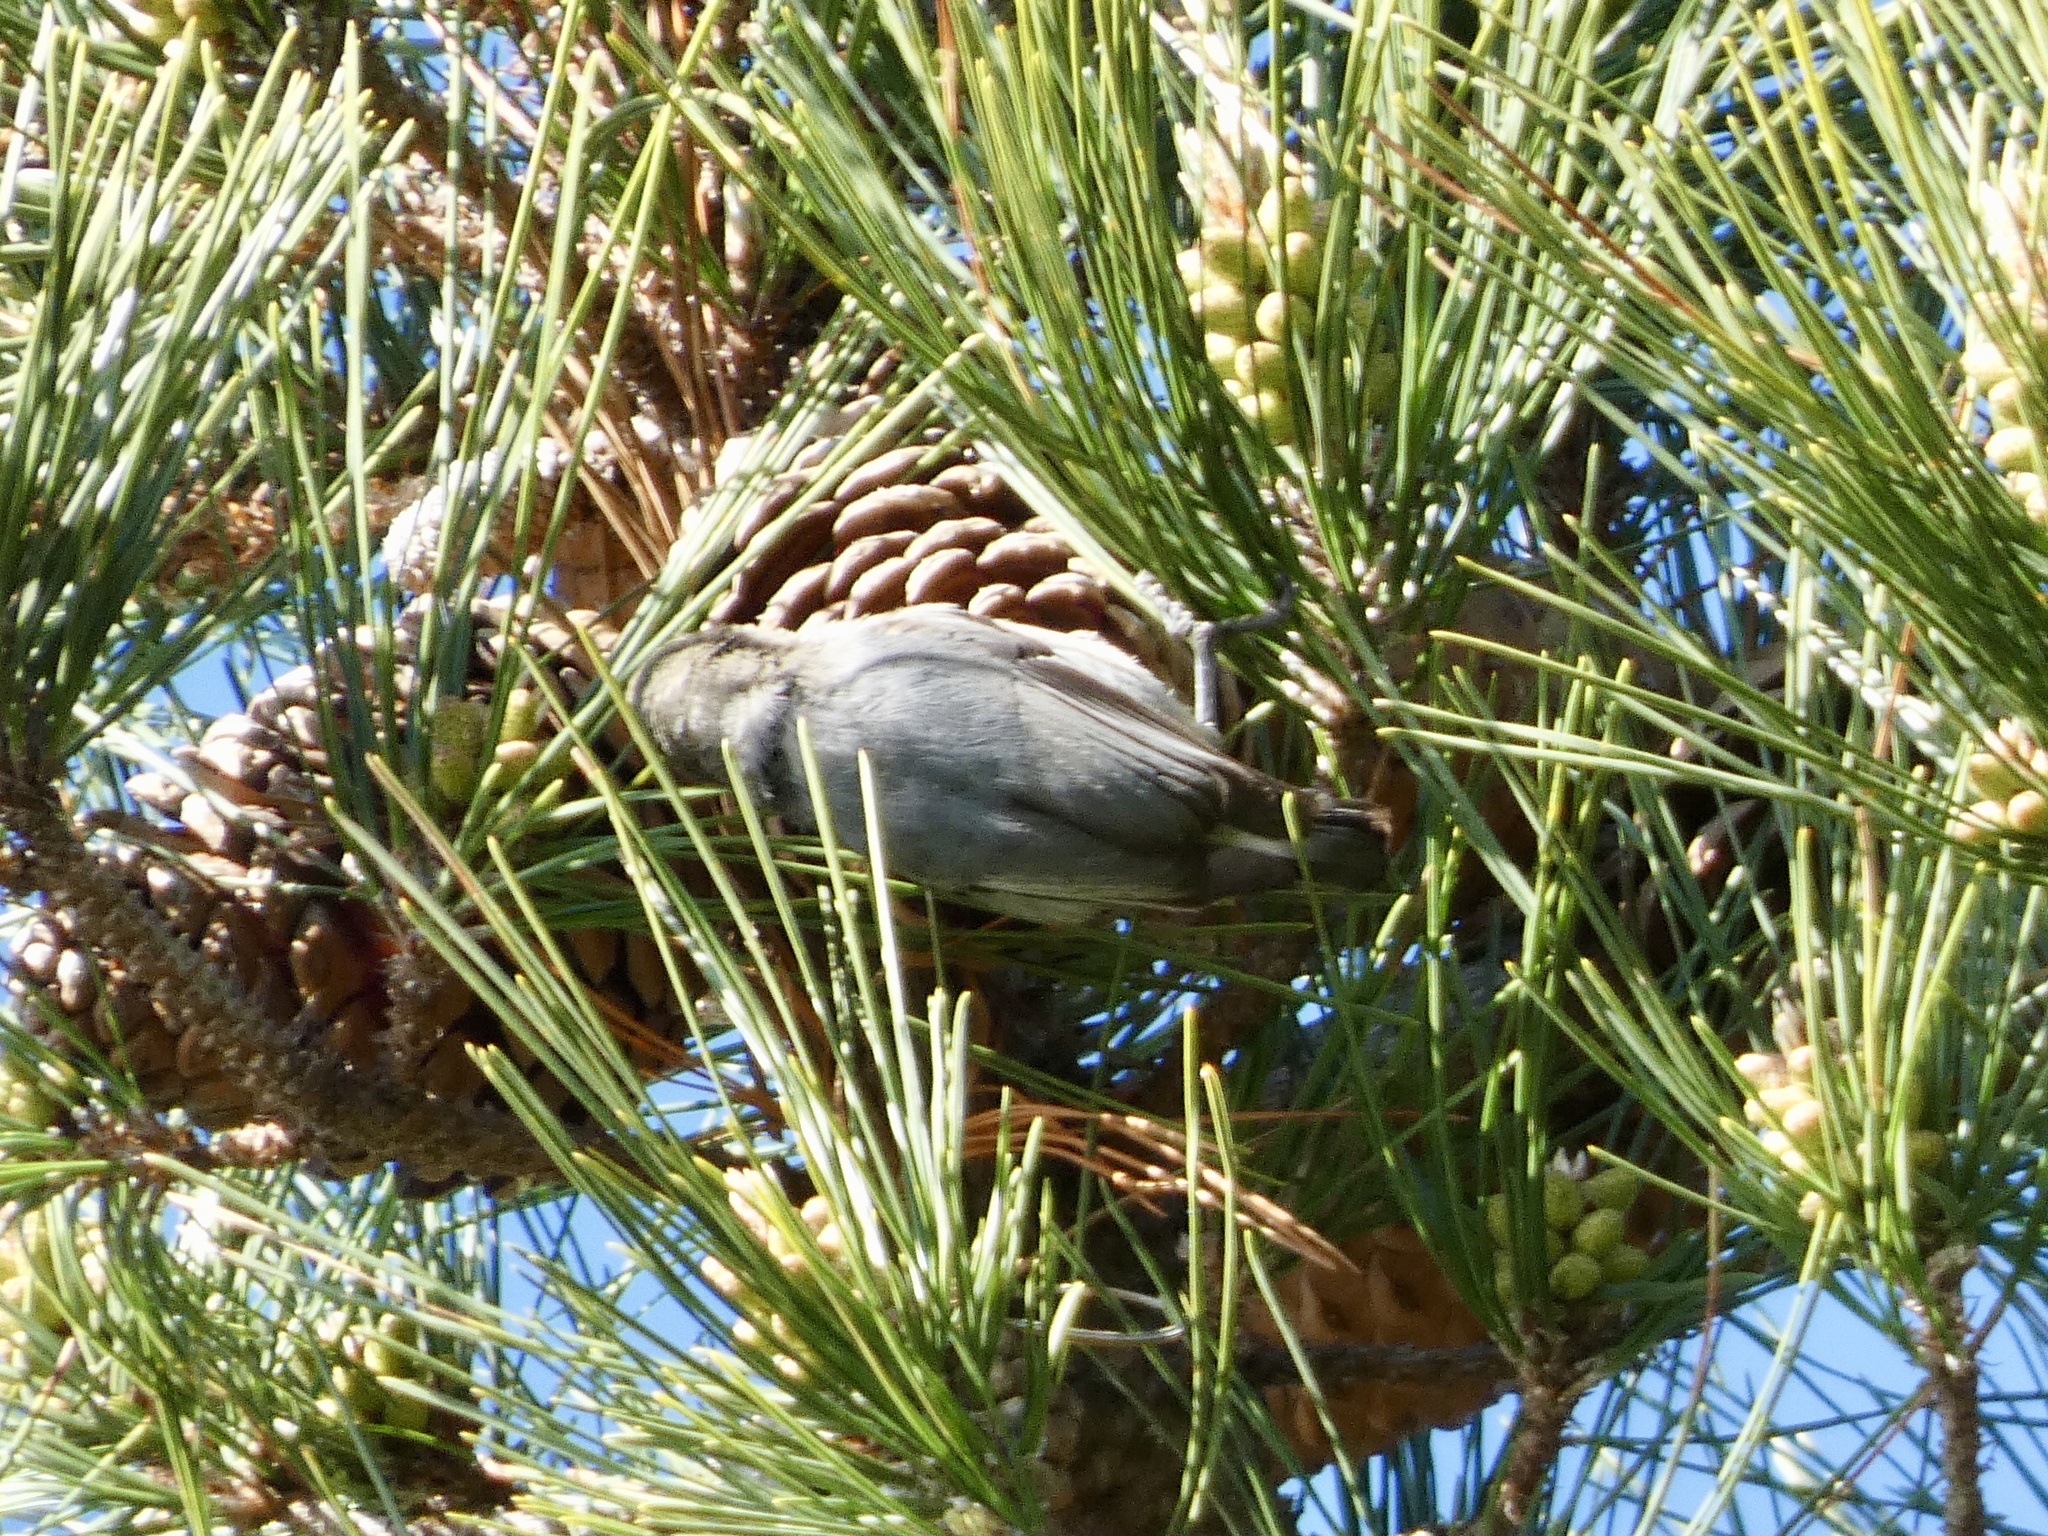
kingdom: Animalia
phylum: Chordata
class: Aves
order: Passeriformes
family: Sittidae
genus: Sitta
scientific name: Sitta pygmaea
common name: Pygmy nuthatch
